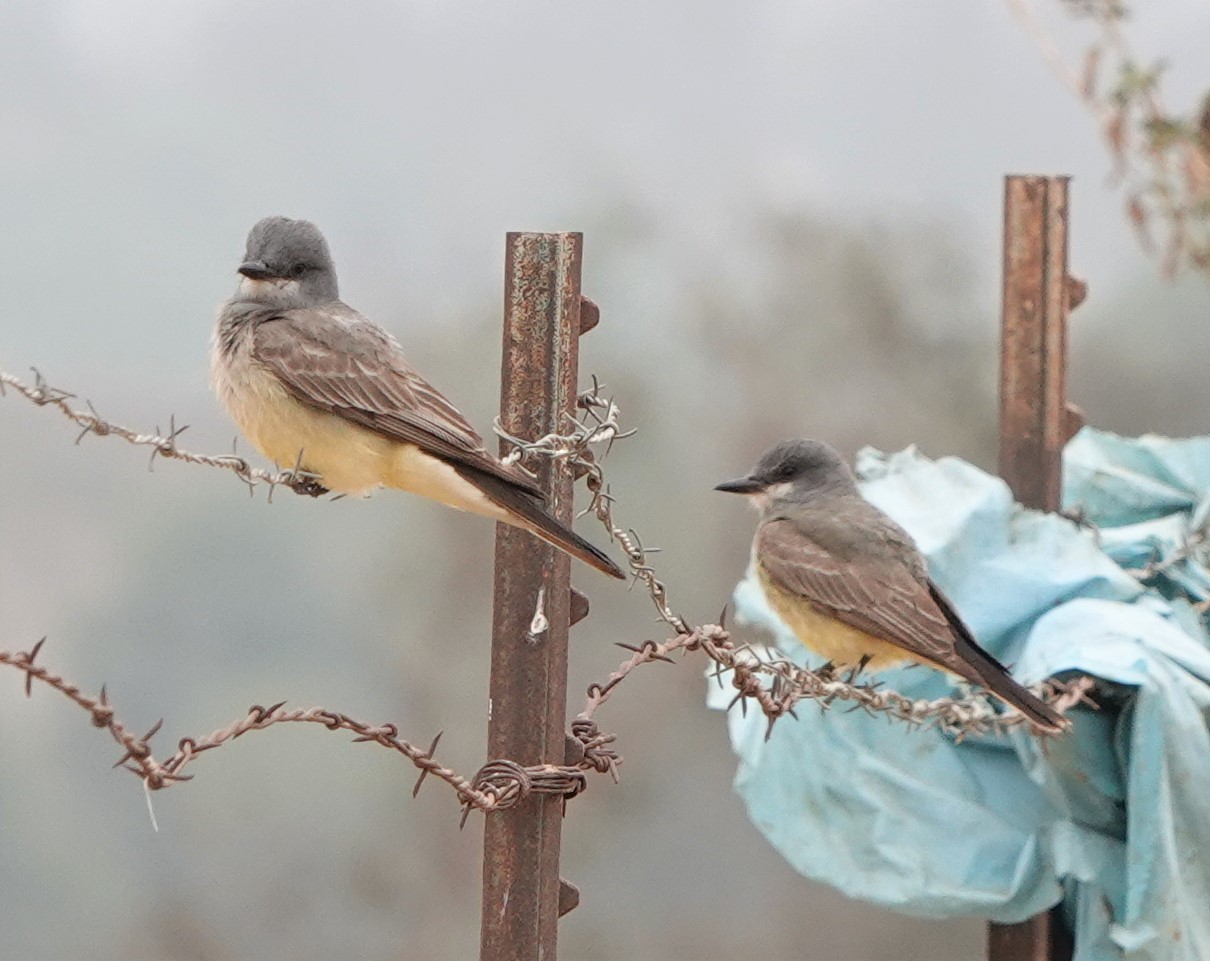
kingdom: Animalia
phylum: Chordata
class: Aves
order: Passeriformes
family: Tyrannidae
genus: Tyrannus
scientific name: Tyrannus vociferans
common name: Cassin's kingbird
